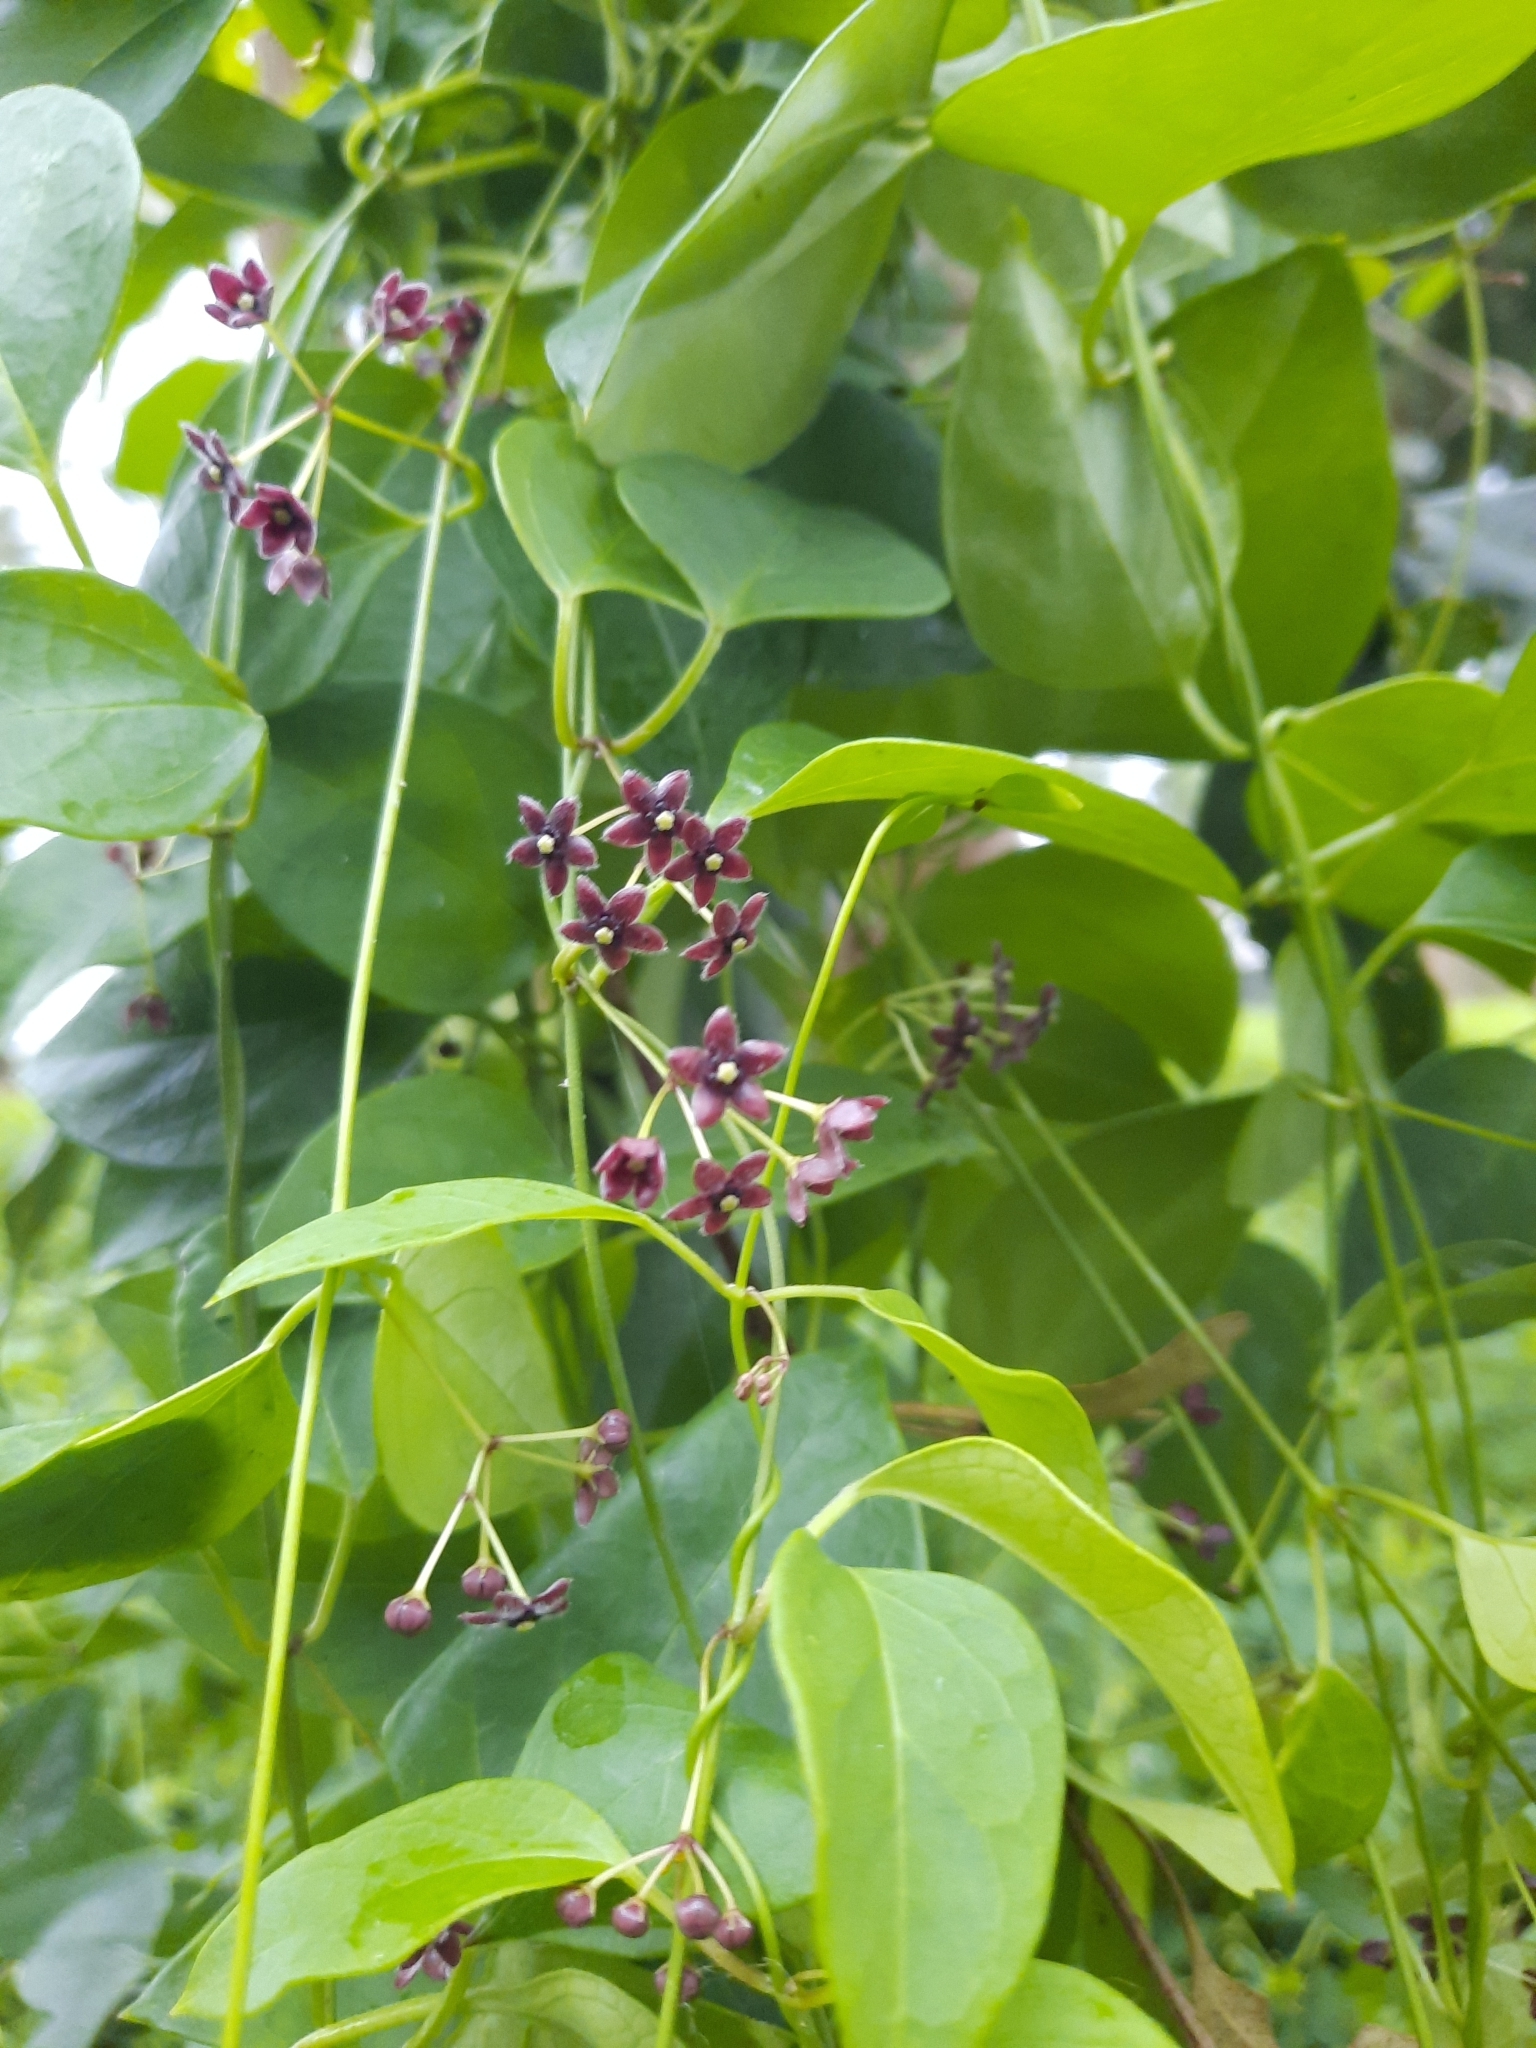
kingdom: Plantae
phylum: Tracheophyta
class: Magnoliopsida
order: Gentianales
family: Apocynaceae
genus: Vincetoxicum
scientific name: Vincetoxicum barbatum
